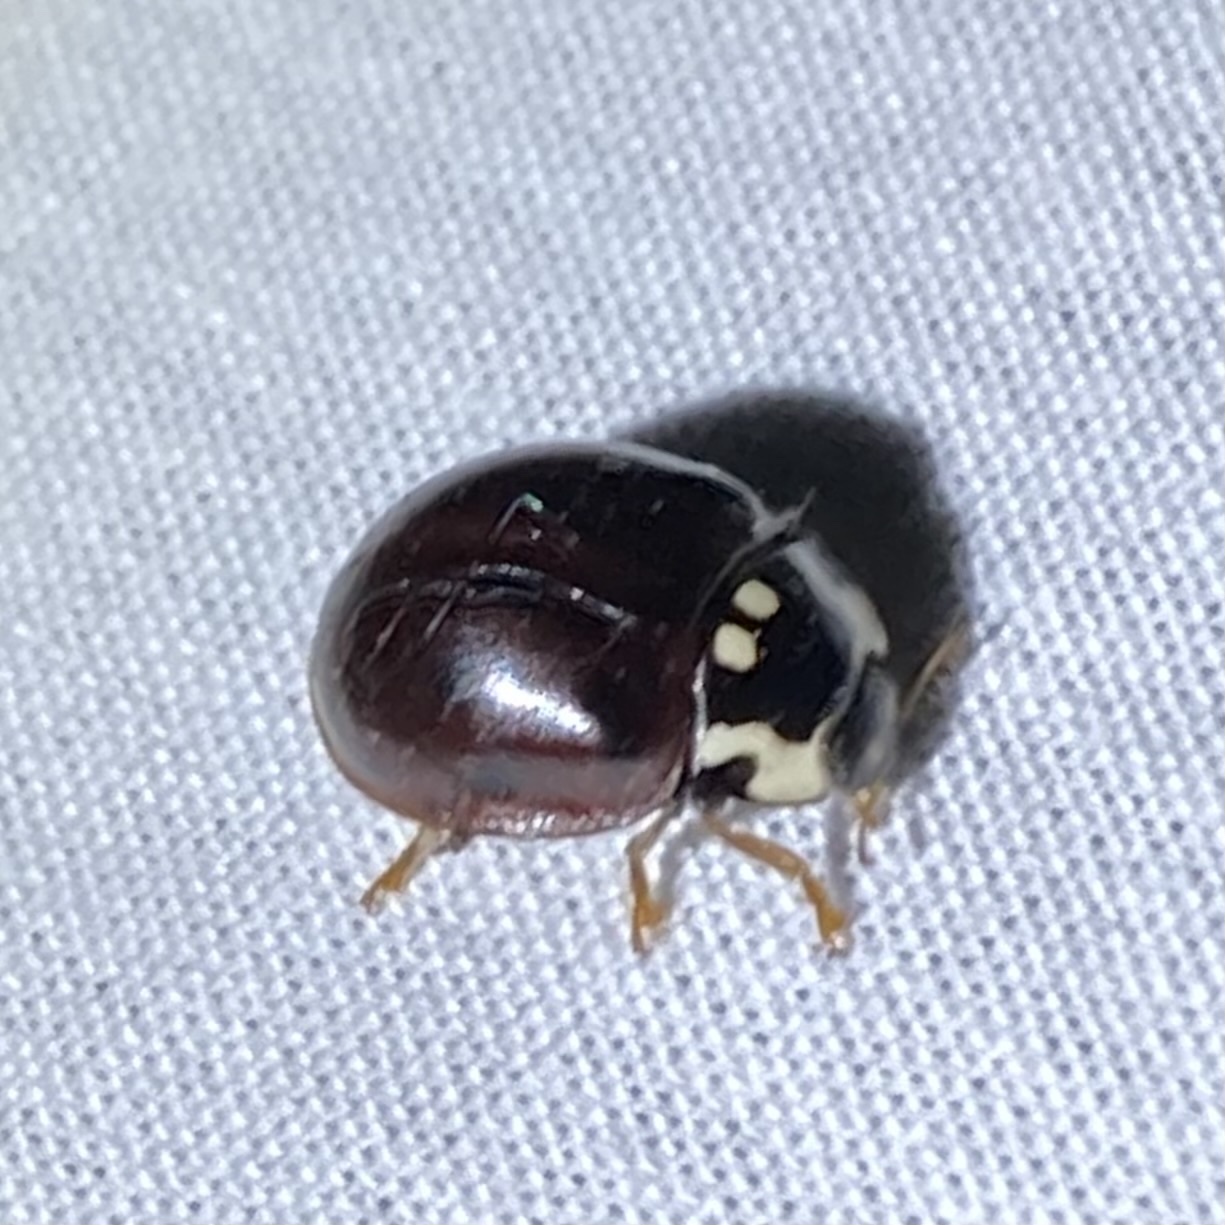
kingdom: Animalia
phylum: Arthropoda
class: Insecta
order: Coleoptera
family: Coccinellidae
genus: Anatis
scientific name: Anatis labiculata
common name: Fifteen-spotted lady beetle
